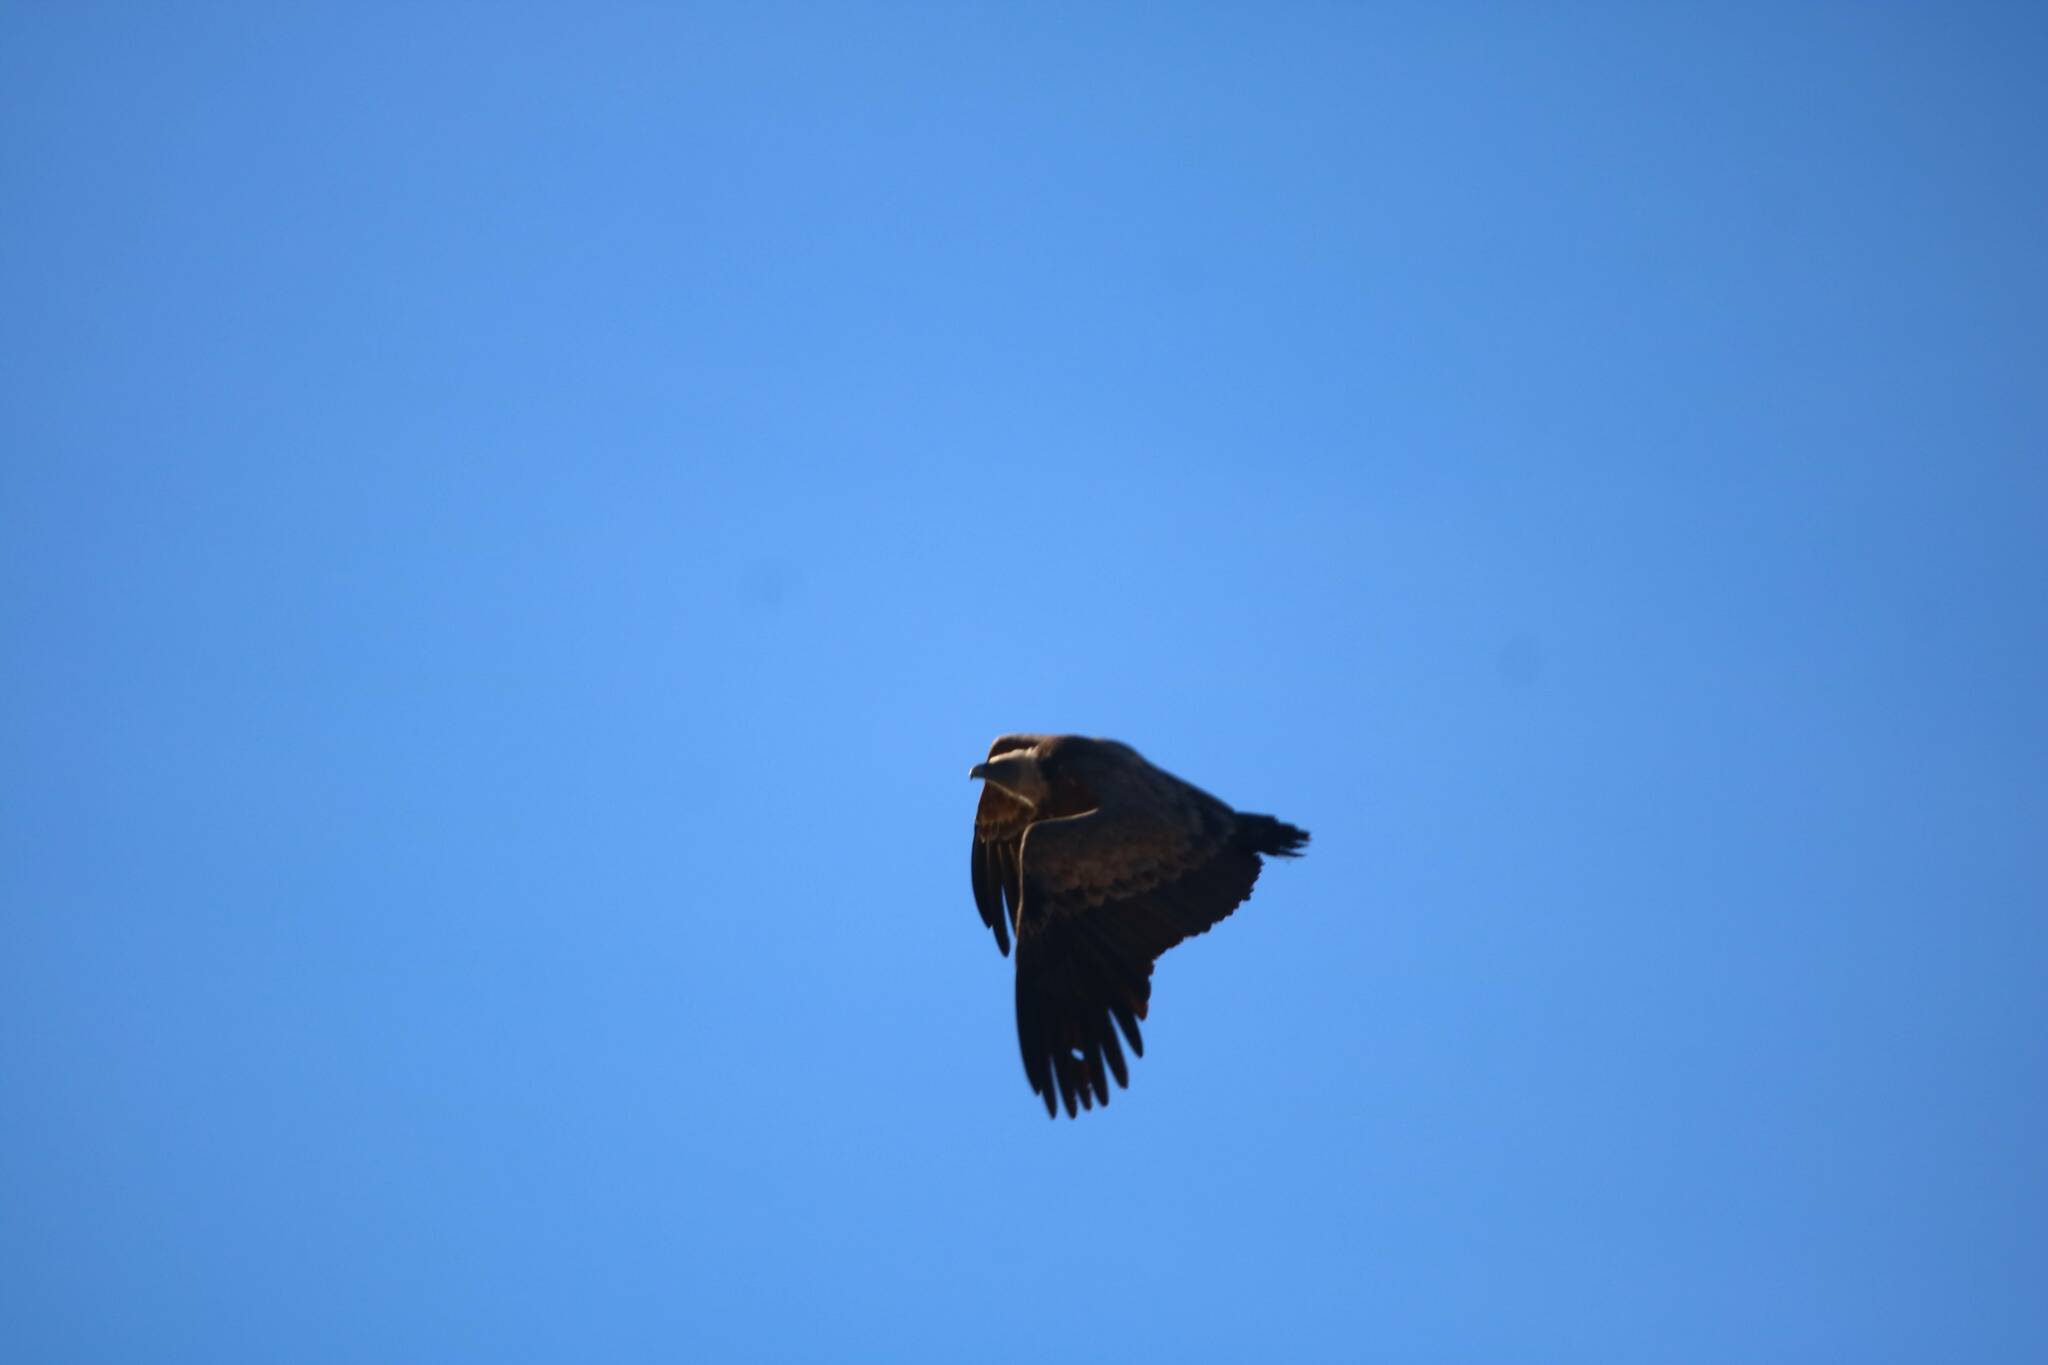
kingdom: Animalia
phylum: Chordata
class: Aves
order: Accipitriformes
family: Accipitridae
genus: Gyps
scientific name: Gyps fulvus
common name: Griffon vulture
